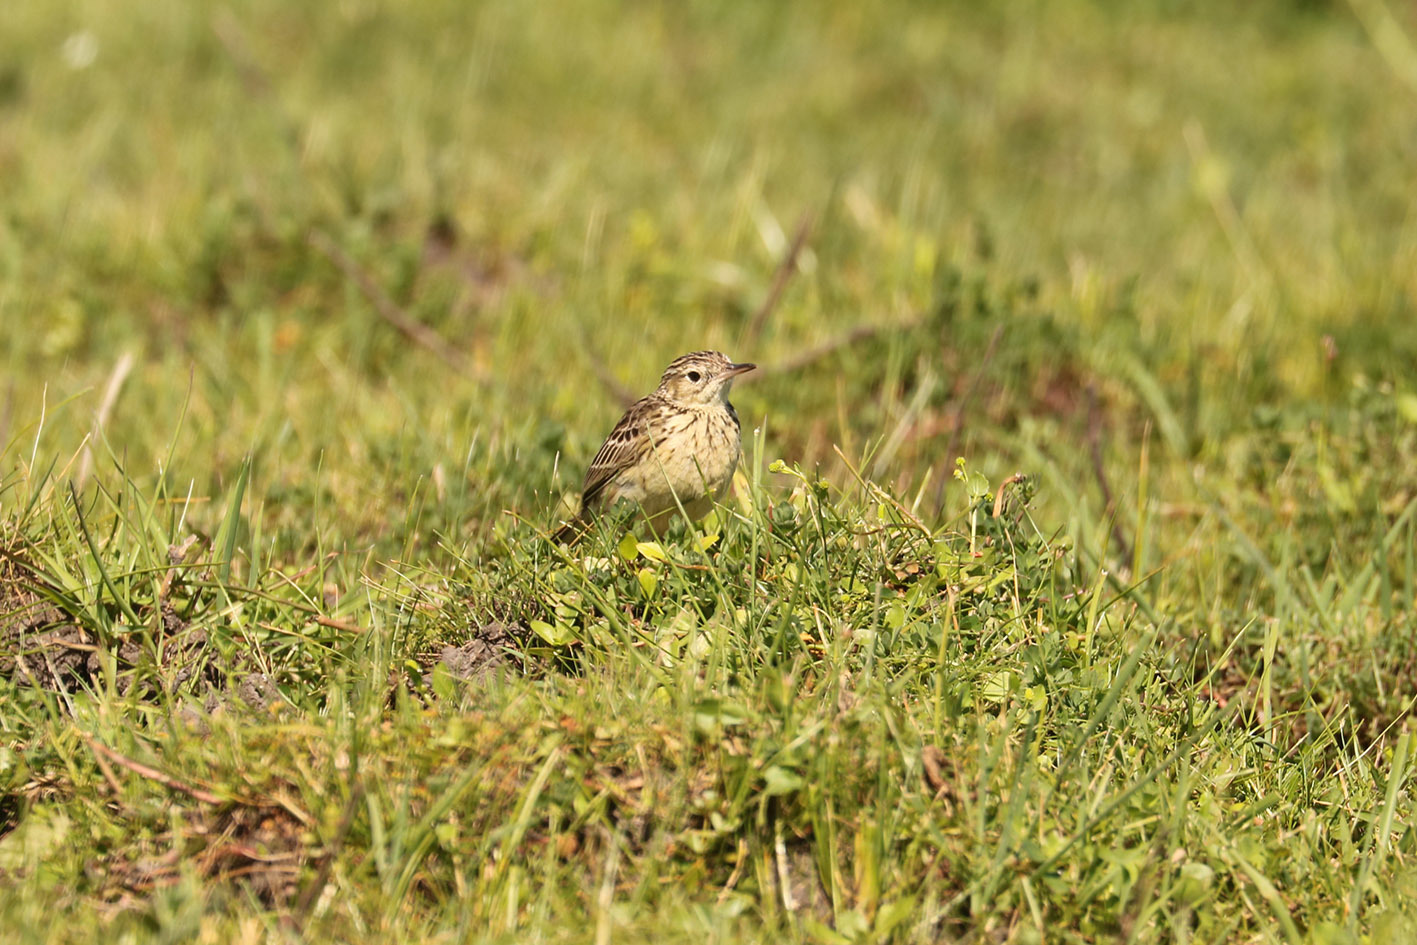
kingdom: Animalia
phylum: Chordata
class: Aves
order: Passeriformes
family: Motacillidae
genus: Anthus
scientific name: Anthus chii
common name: Yellowish pipit
